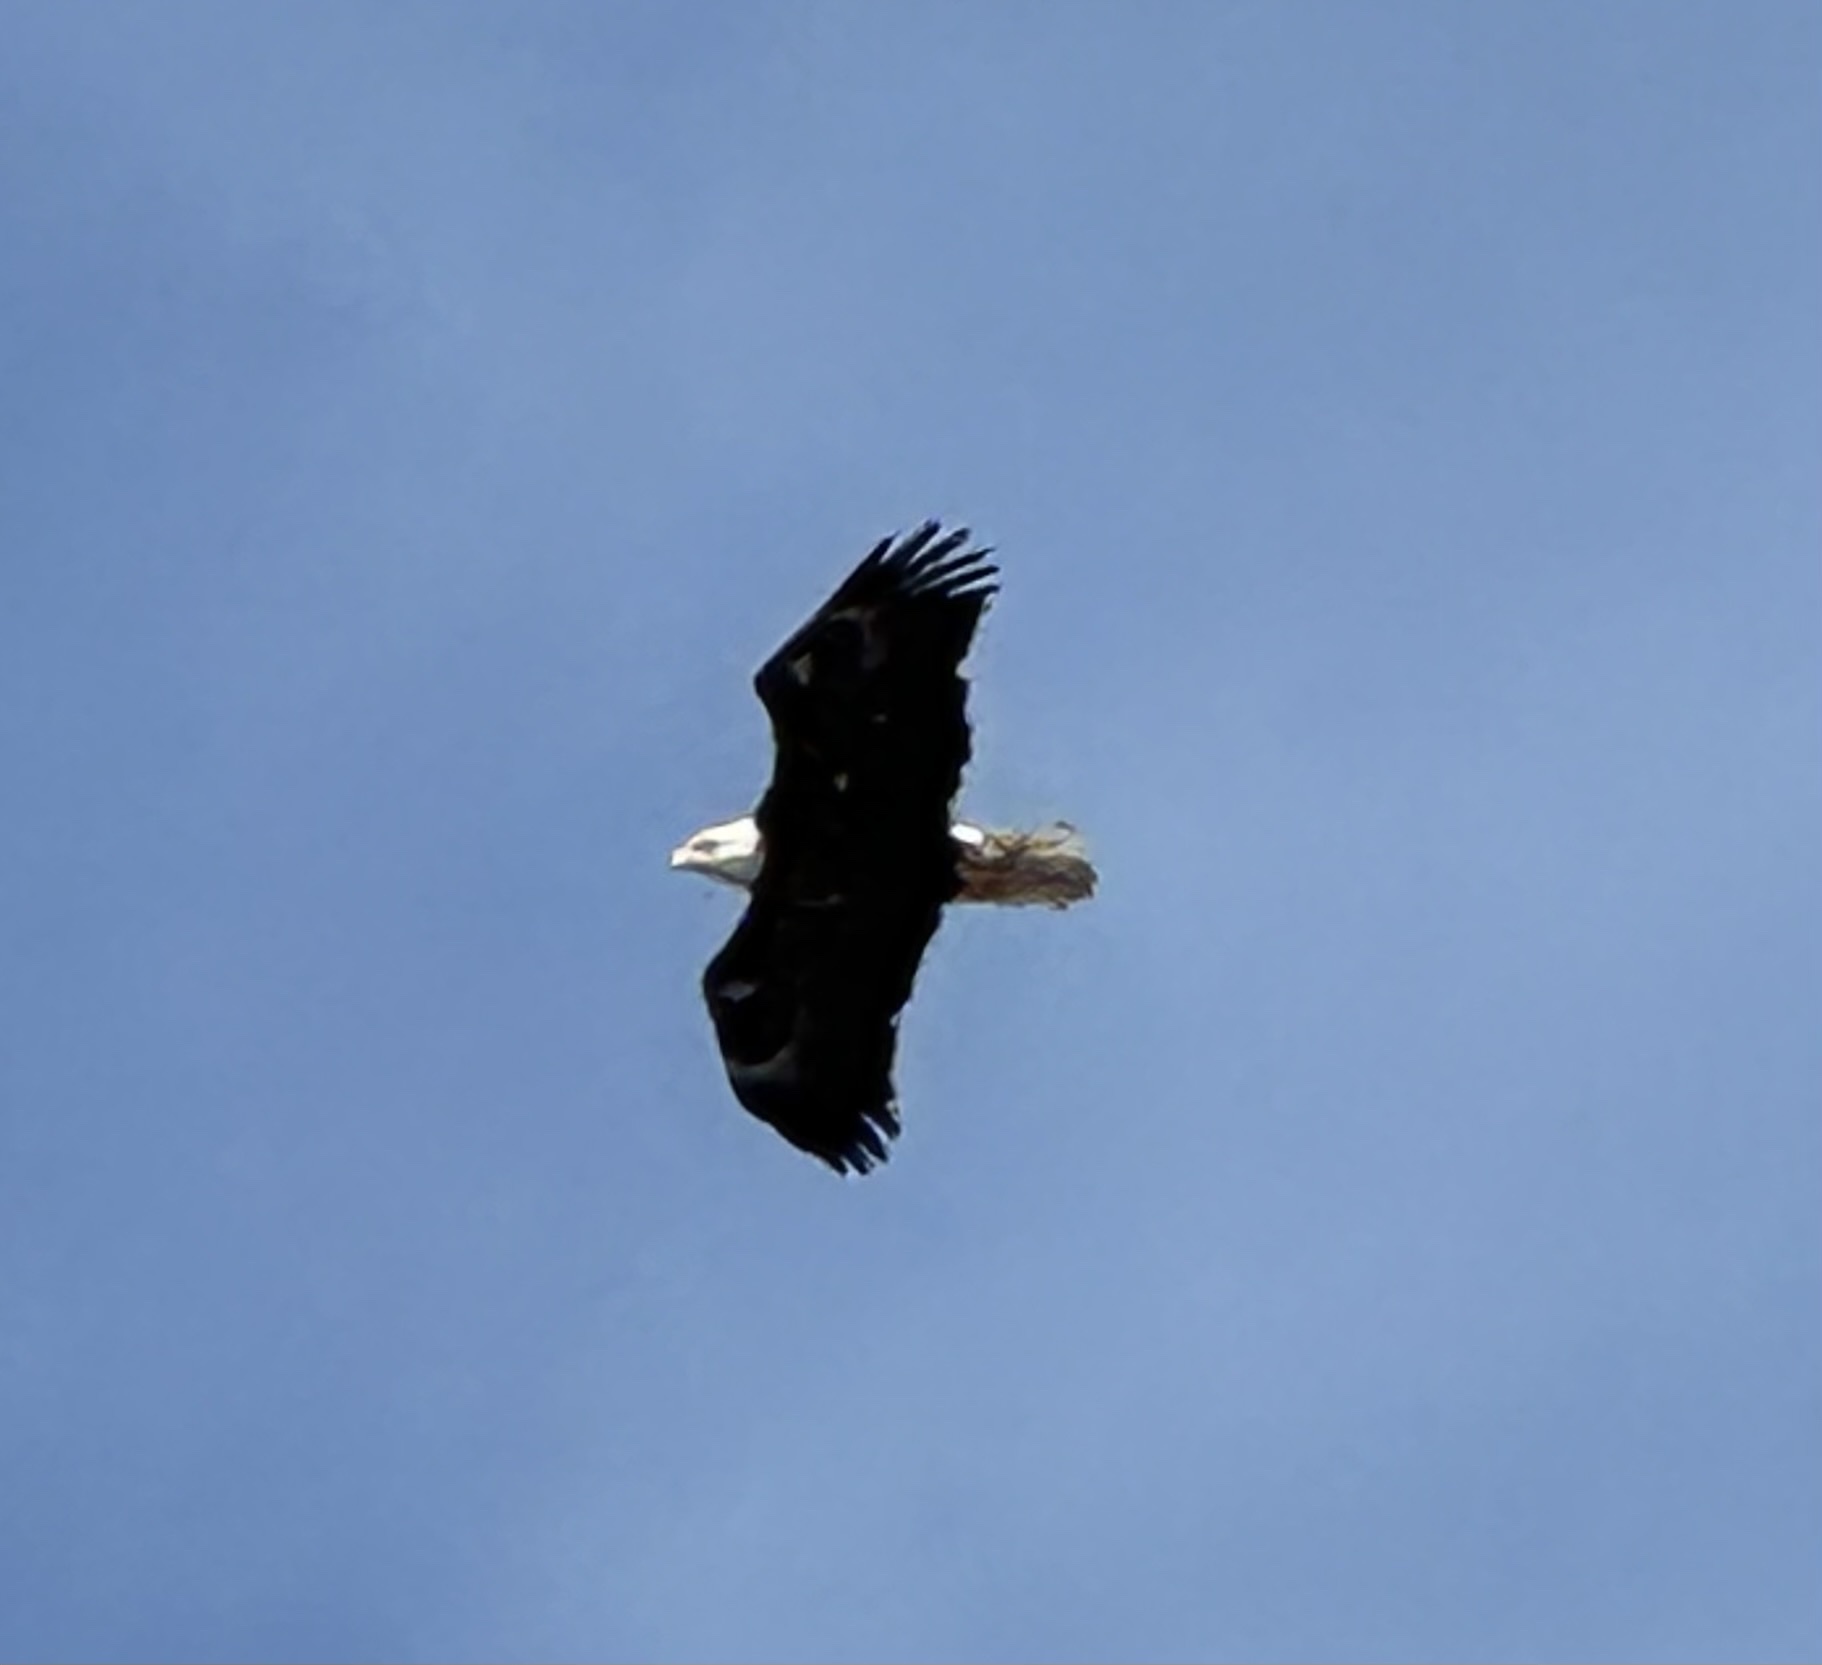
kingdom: Animalia
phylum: Chordata
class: Aves
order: Accipitriformes
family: Accipitridae
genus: Haliaeetus
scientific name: Haliaeetus leucocephalus
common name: Bald eagle
